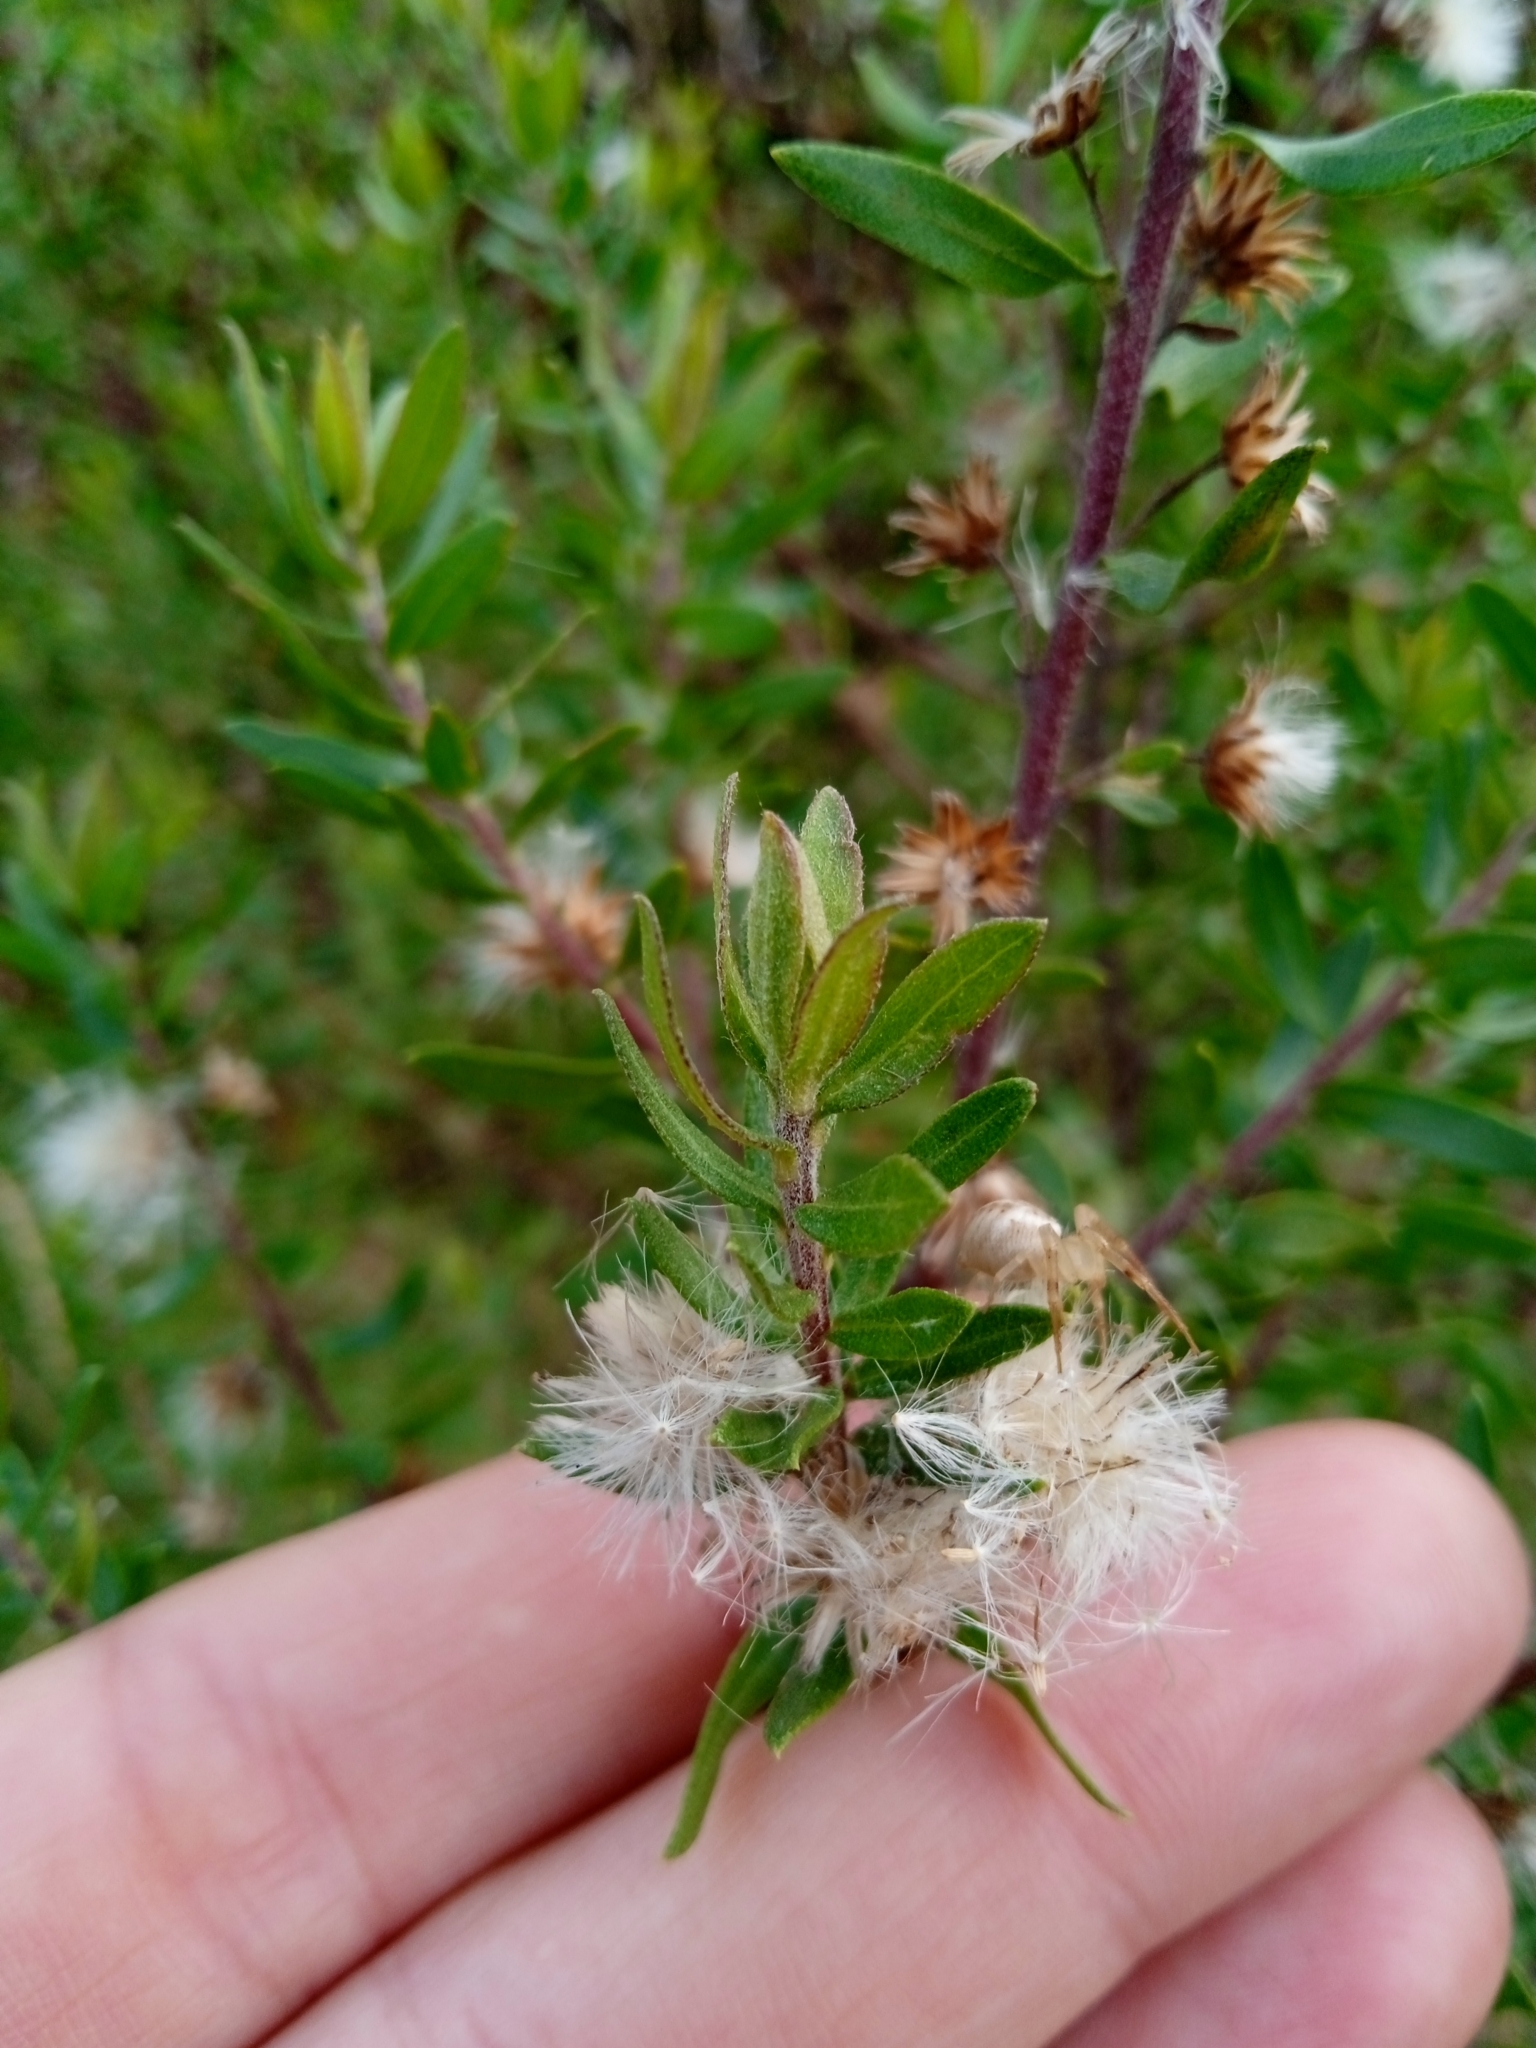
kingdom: Plantae
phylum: Tracheophyta
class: Magnoliopsida
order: Asterales
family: Asteraceae
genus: Baccharis
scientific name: Baccharis dracunculifolia
